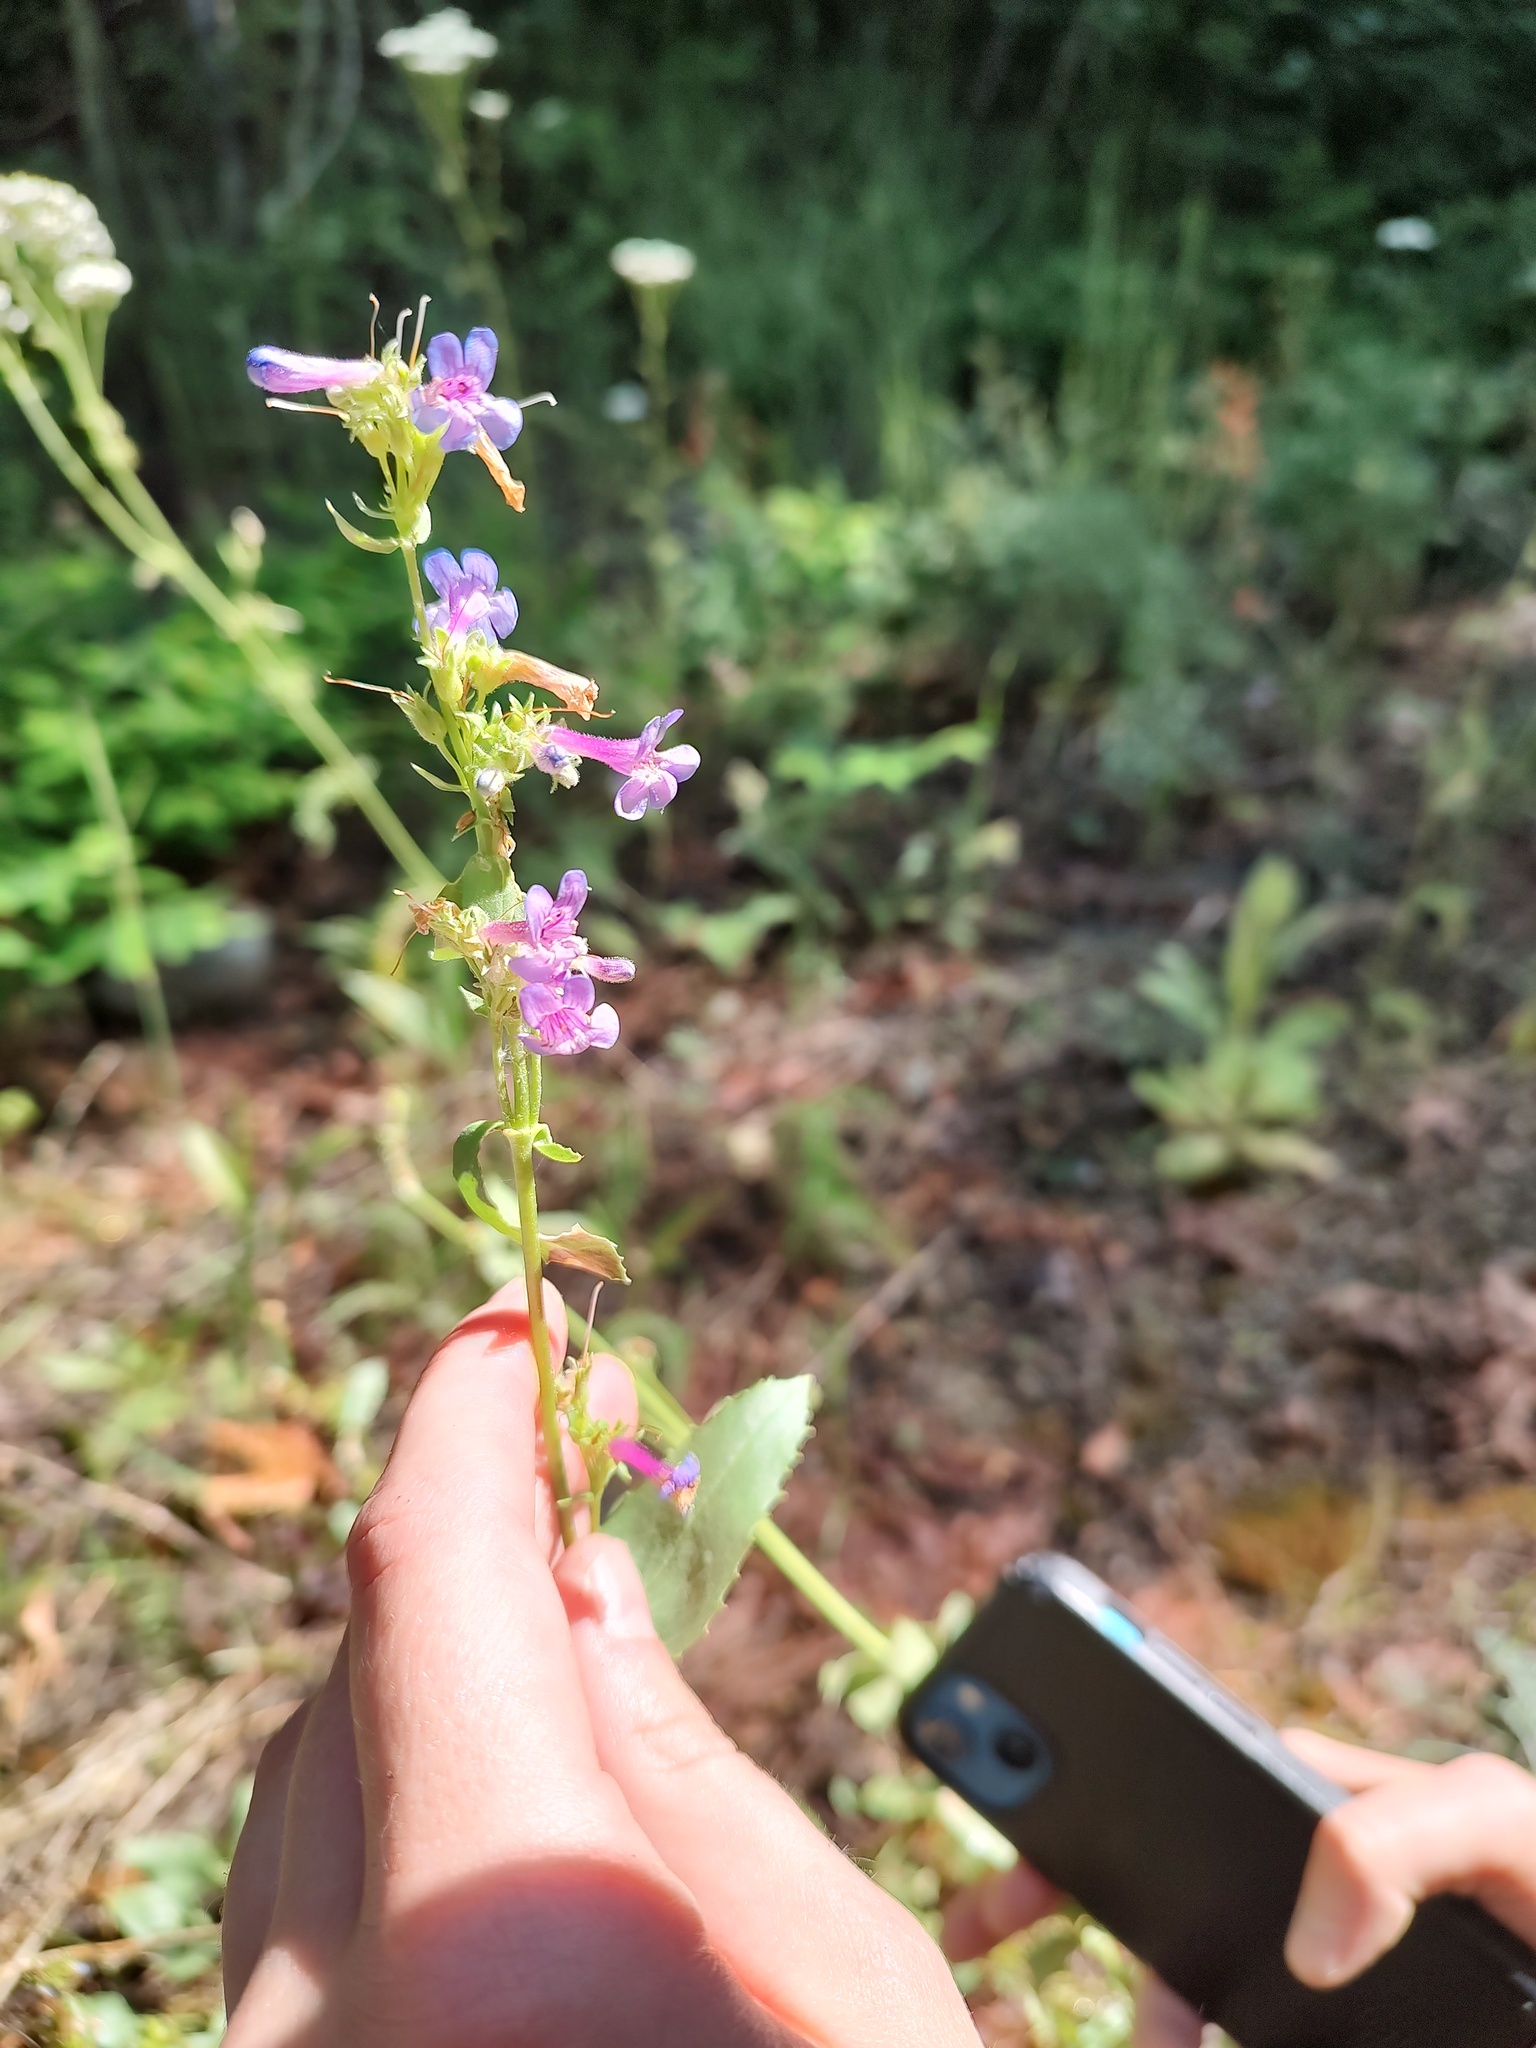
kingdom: Plantae
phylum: Tracheophyta
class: Magnoliopsida
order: Lamiales
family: Plantaginaceae
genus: Penstemon
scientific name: Penstemon pruinosus
